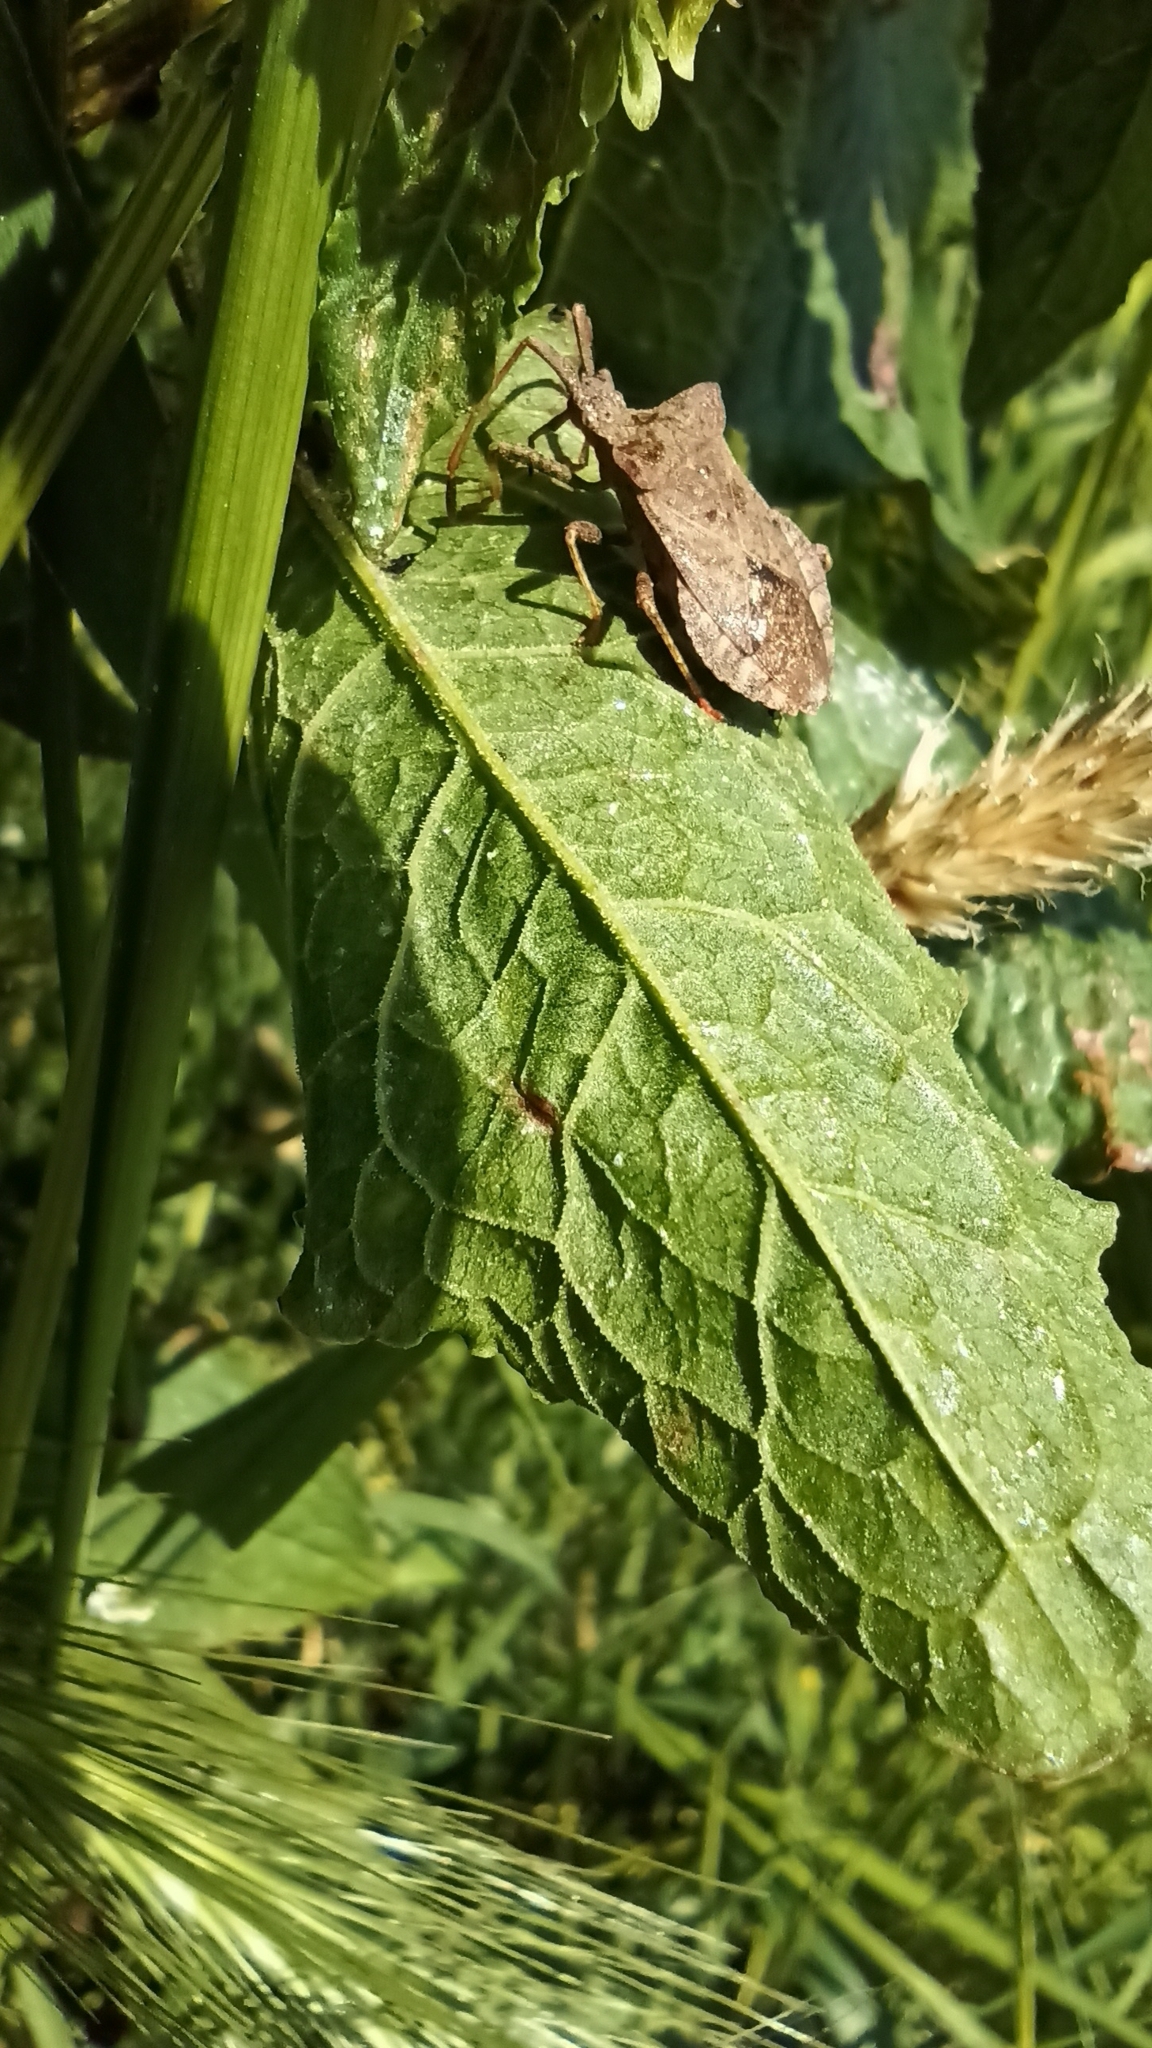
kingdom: Animalia
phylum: Arthropoda
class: Insecta
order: Hemiptera
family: Coreidae
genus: Coreus
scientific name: Coreus marginatus
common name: Dock bug
